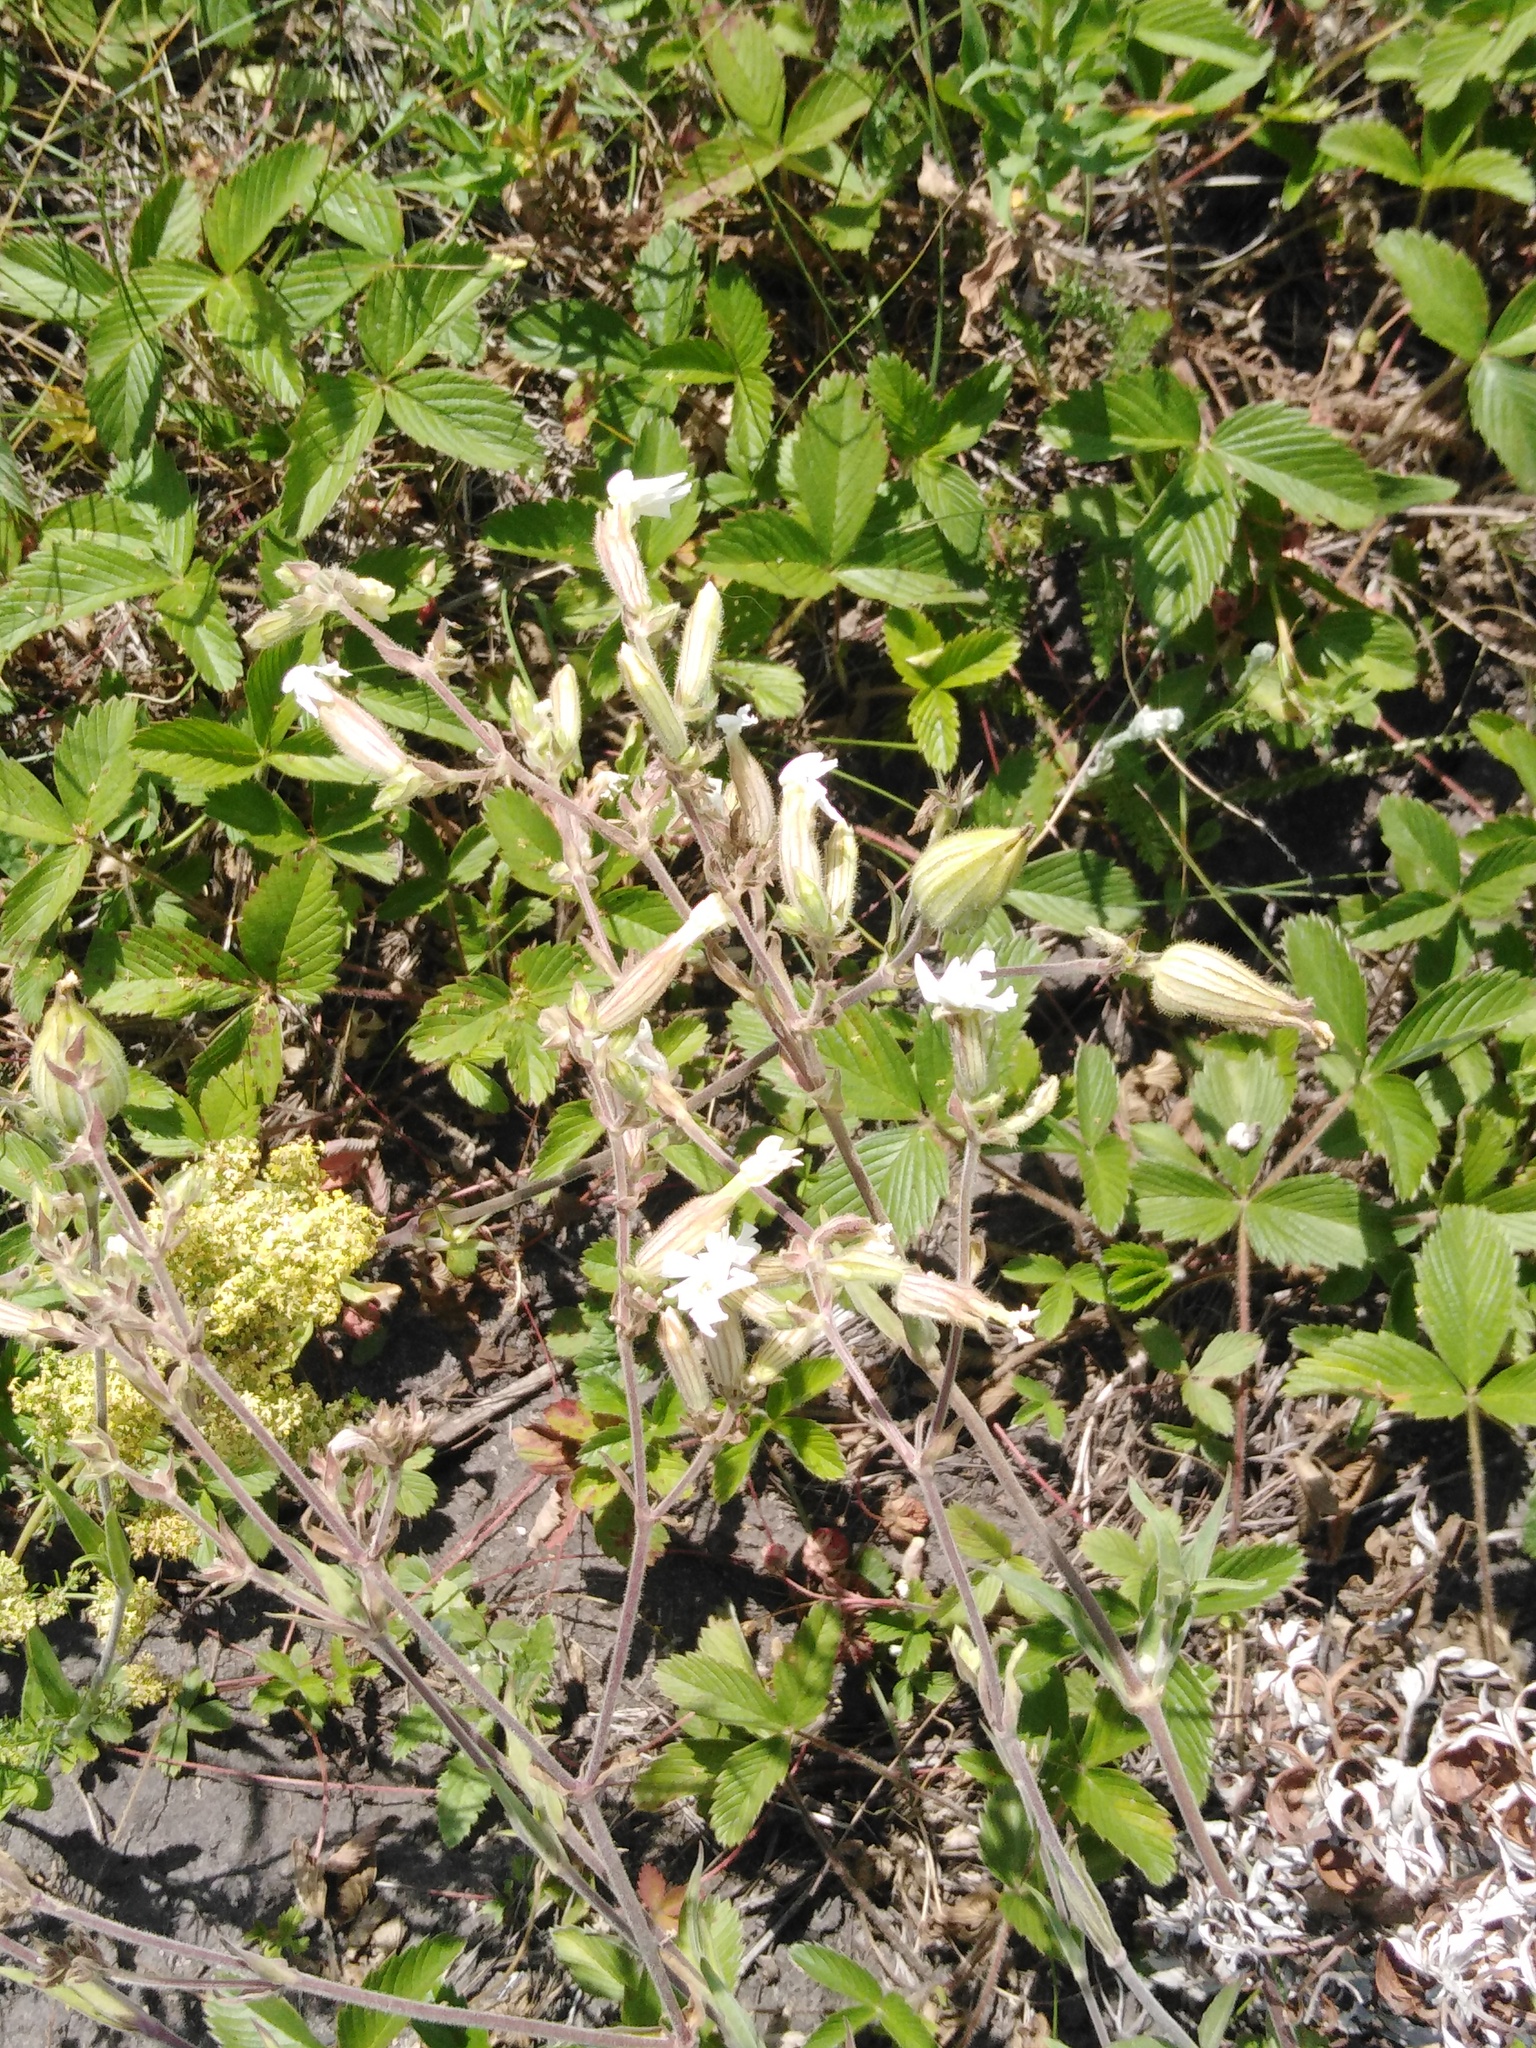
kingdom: Plantae
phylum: Tracheophyta
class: Magnoliopsida
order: Caryophyllales
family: Caryophyllaceae
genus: Silene
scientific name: Silene latifolia
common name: White campion
